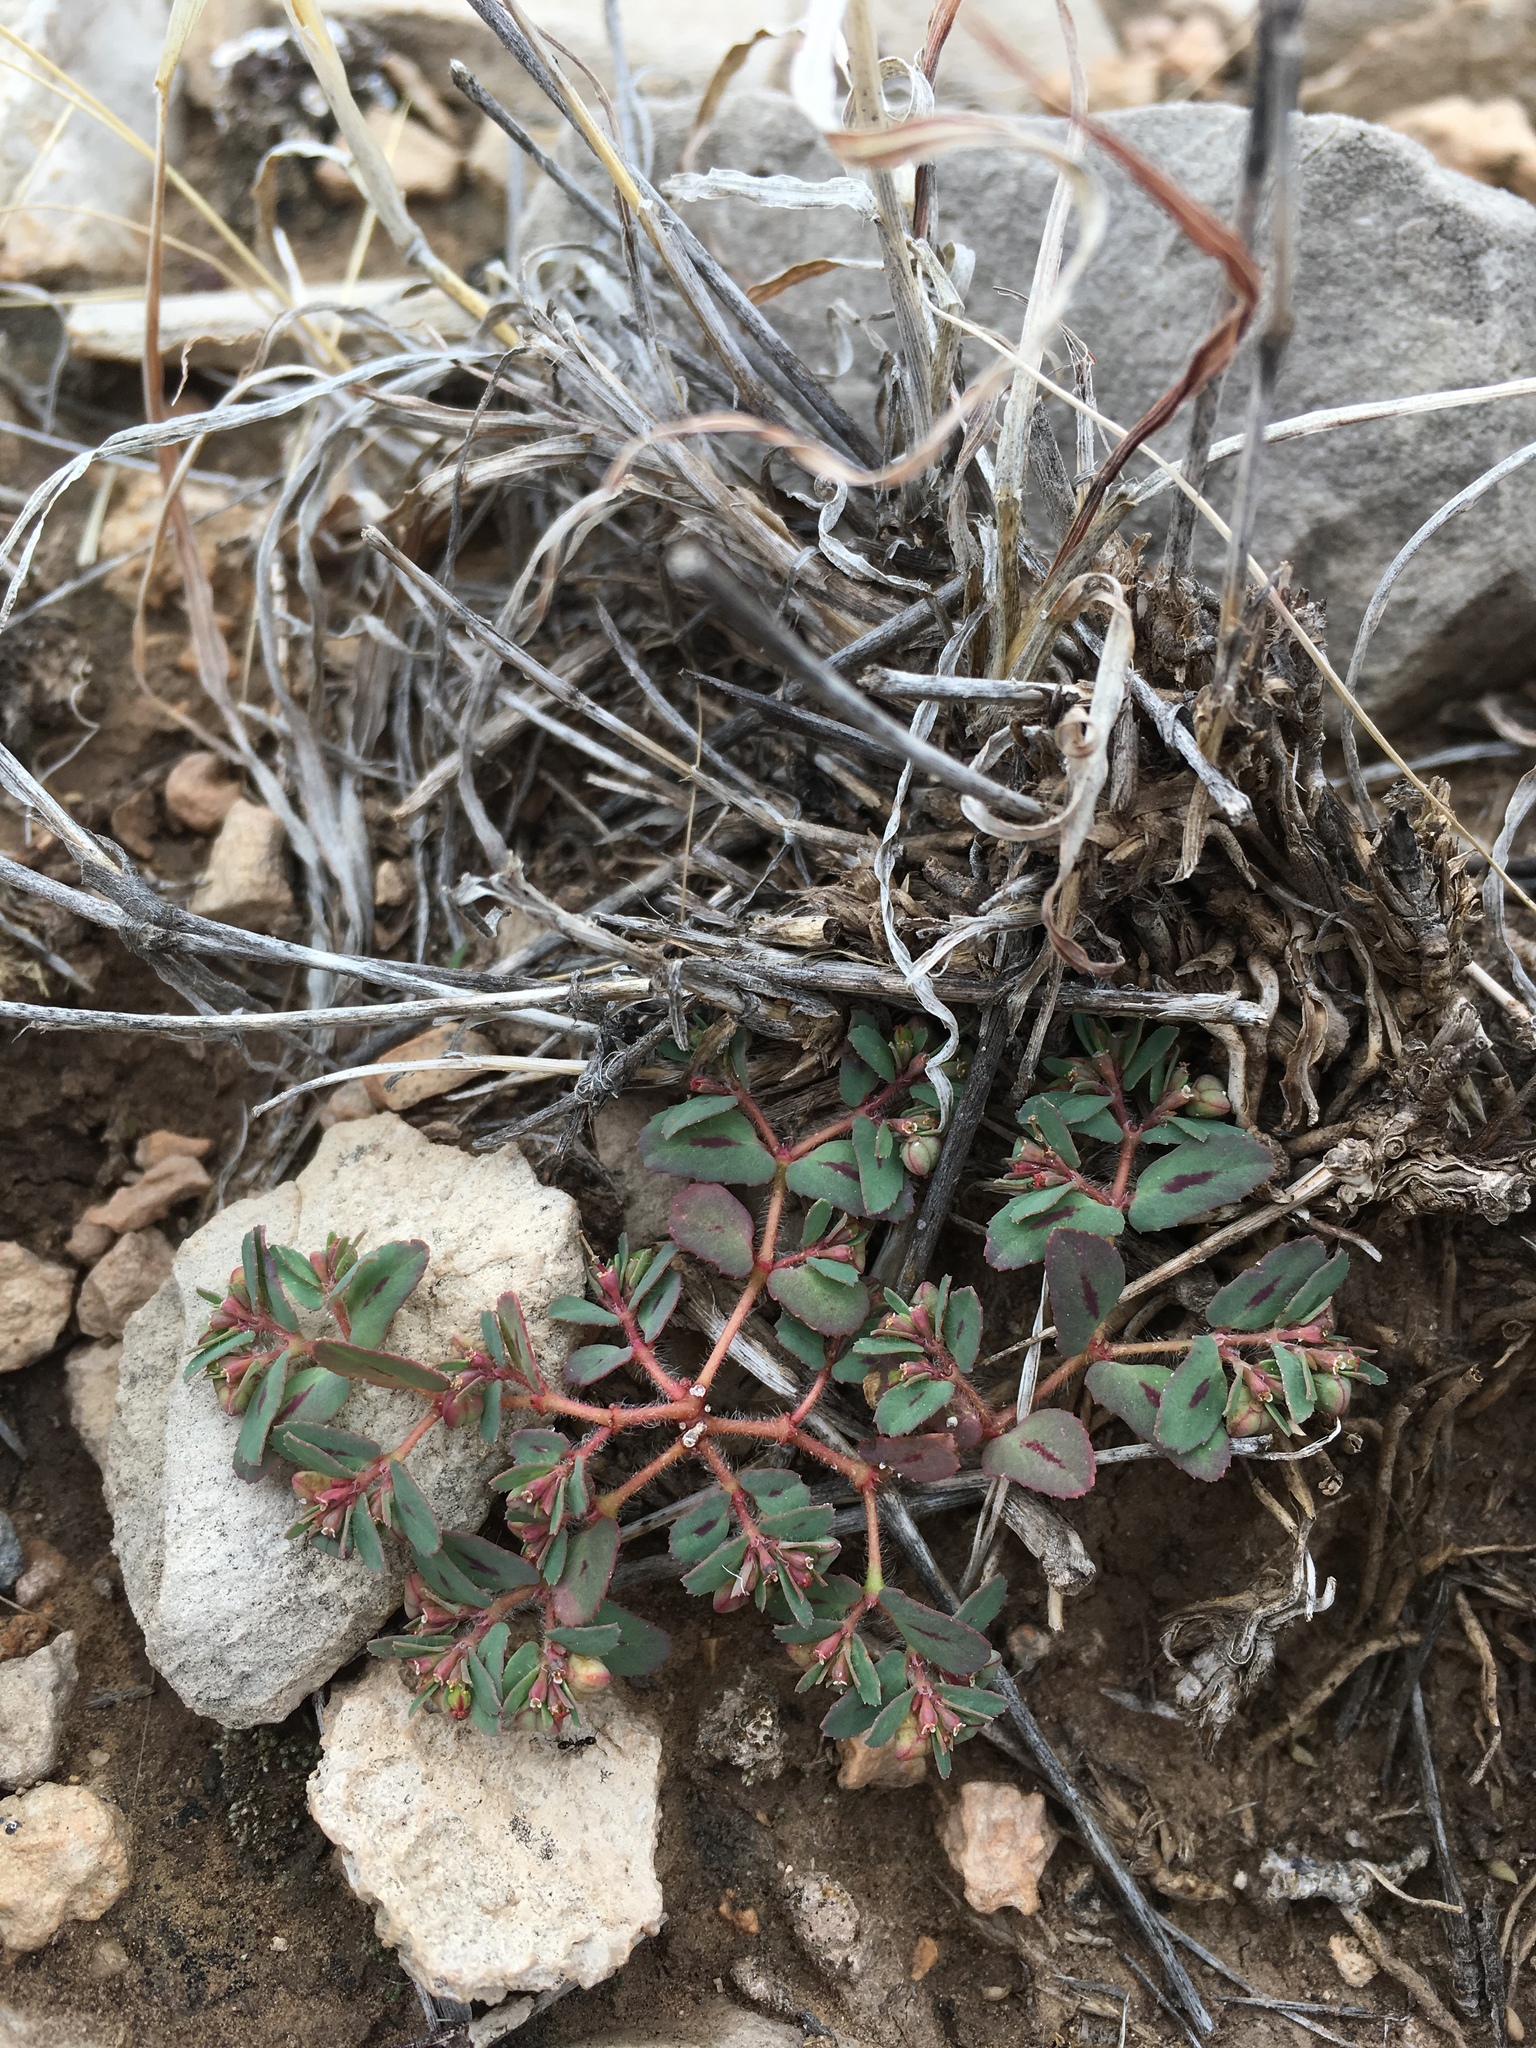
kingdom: Plantae
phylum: Tracheophyta
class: Magnoliopsida
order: Malpighiales
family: Euphorbiaceae
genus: Euphorbia
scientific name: Euphorbia serrula
